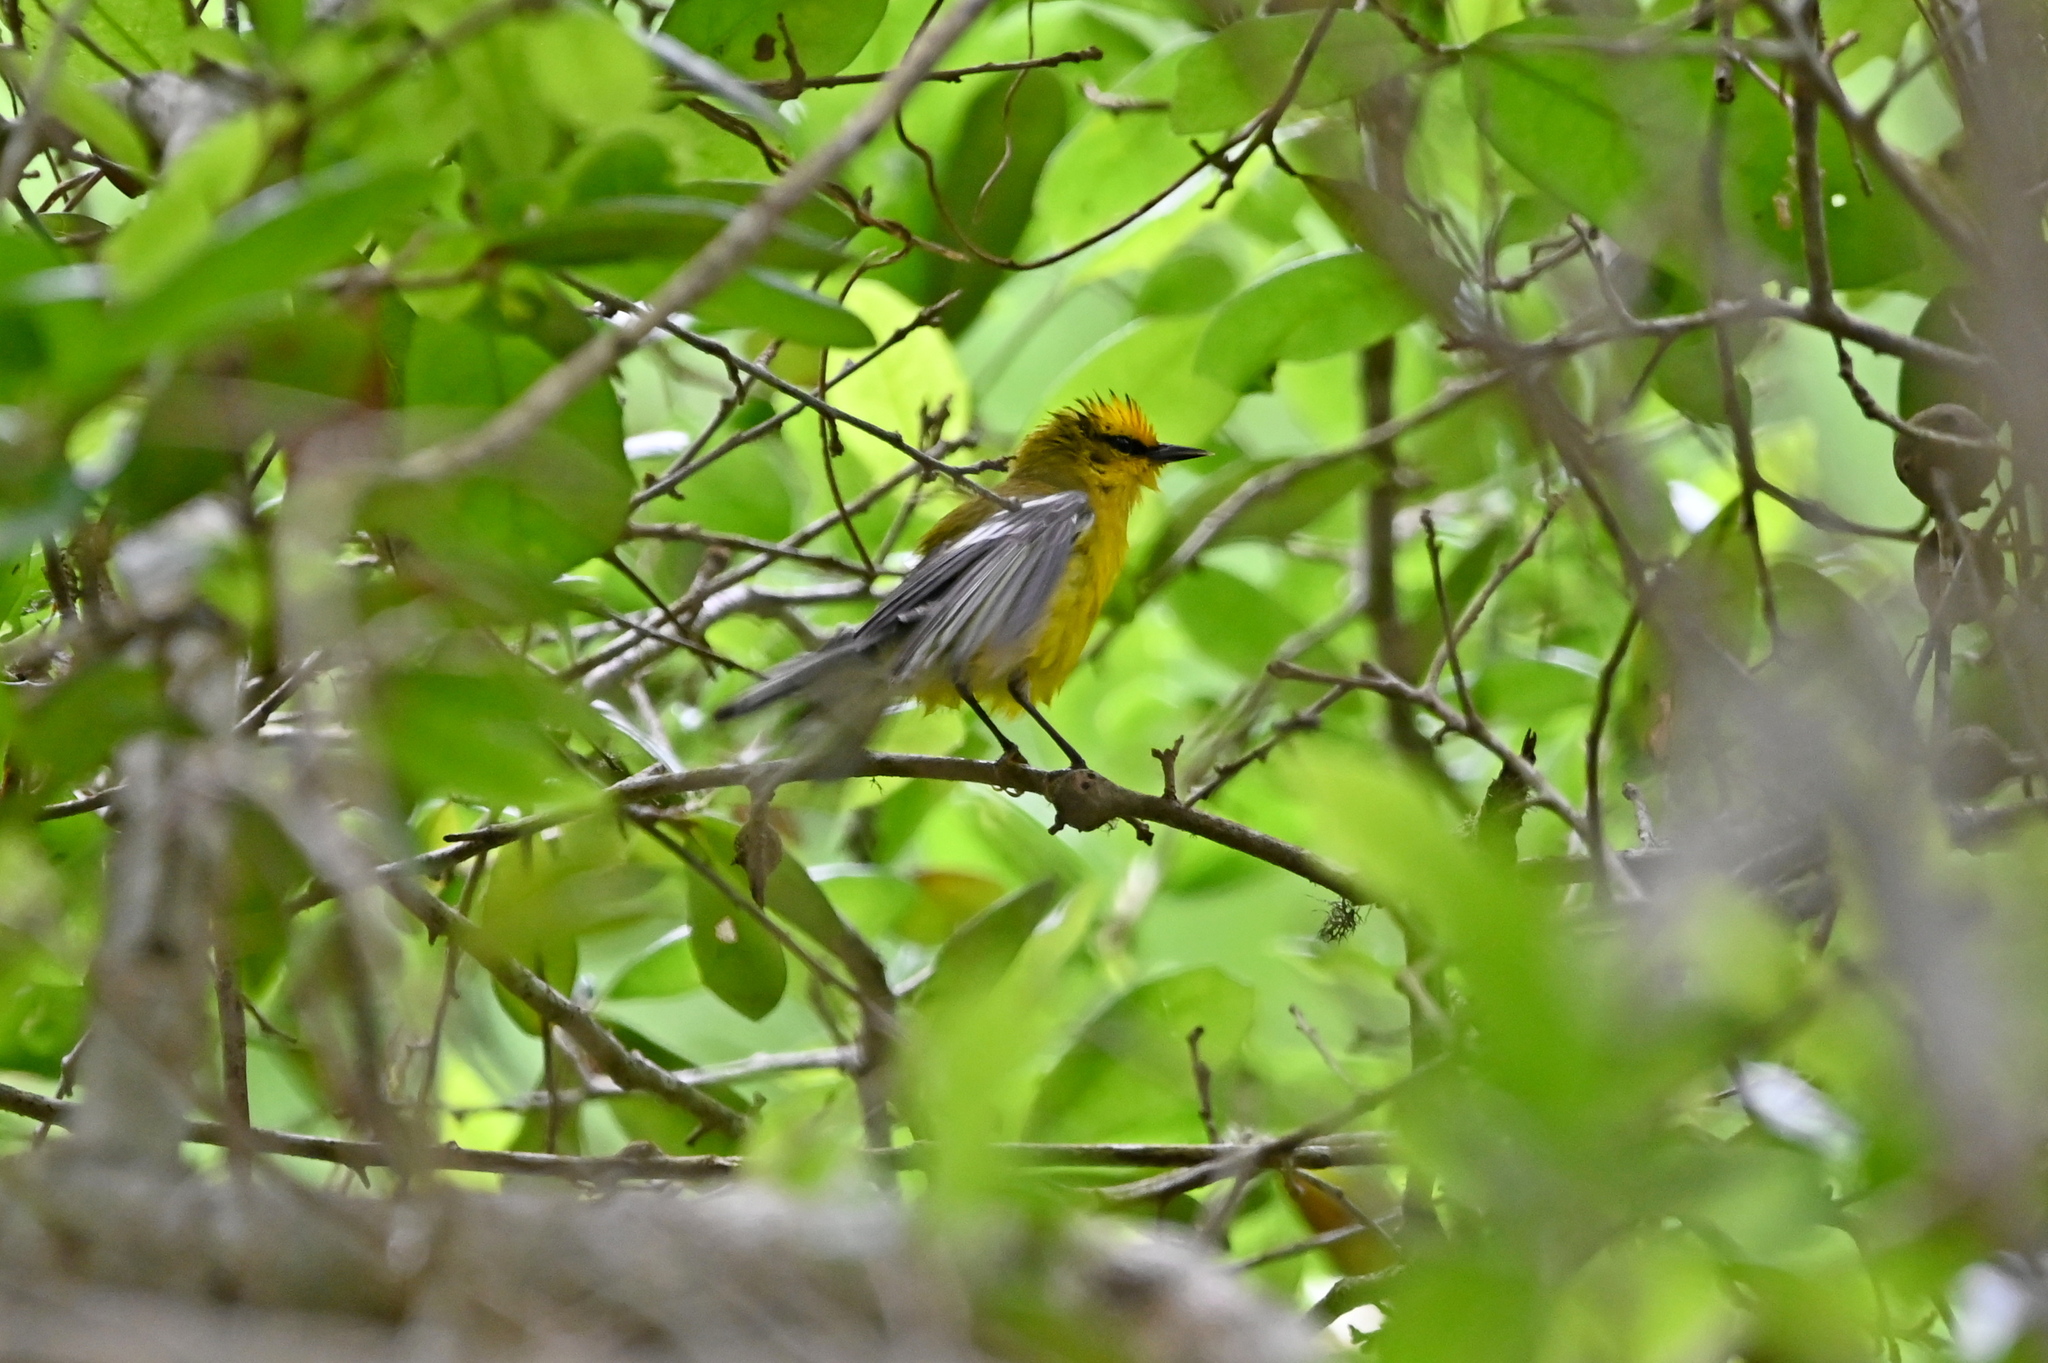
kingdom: Animalia
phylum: Chordata
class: Aves
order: Passeriformes
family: Parulidae
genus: Vermivora
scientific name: Vermivora cyanoptera
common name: Blue-winged warbler
